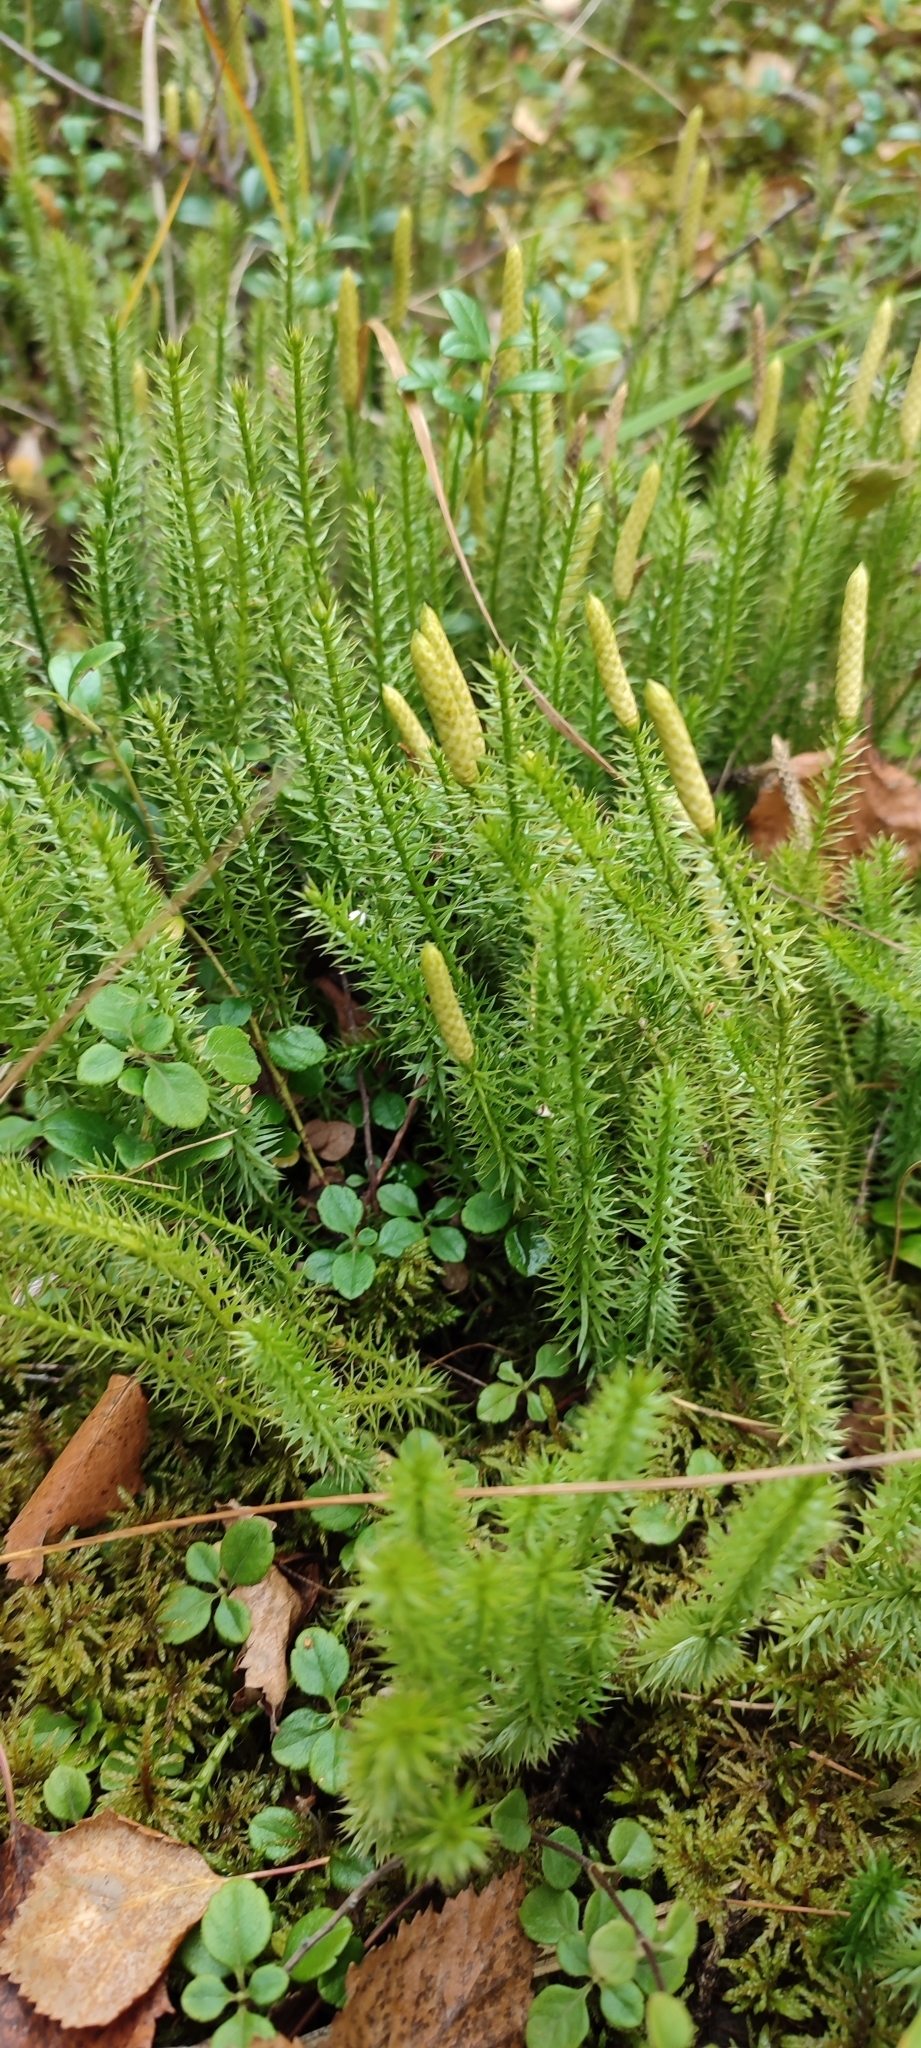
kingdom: Plantae
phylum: Tracheophyta
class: Lycopodiopsida
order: Lycopodiales
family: Lycopodiaceae
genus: Spinulum
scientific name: Spinulum annotinum
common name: Interrupted club-moss
